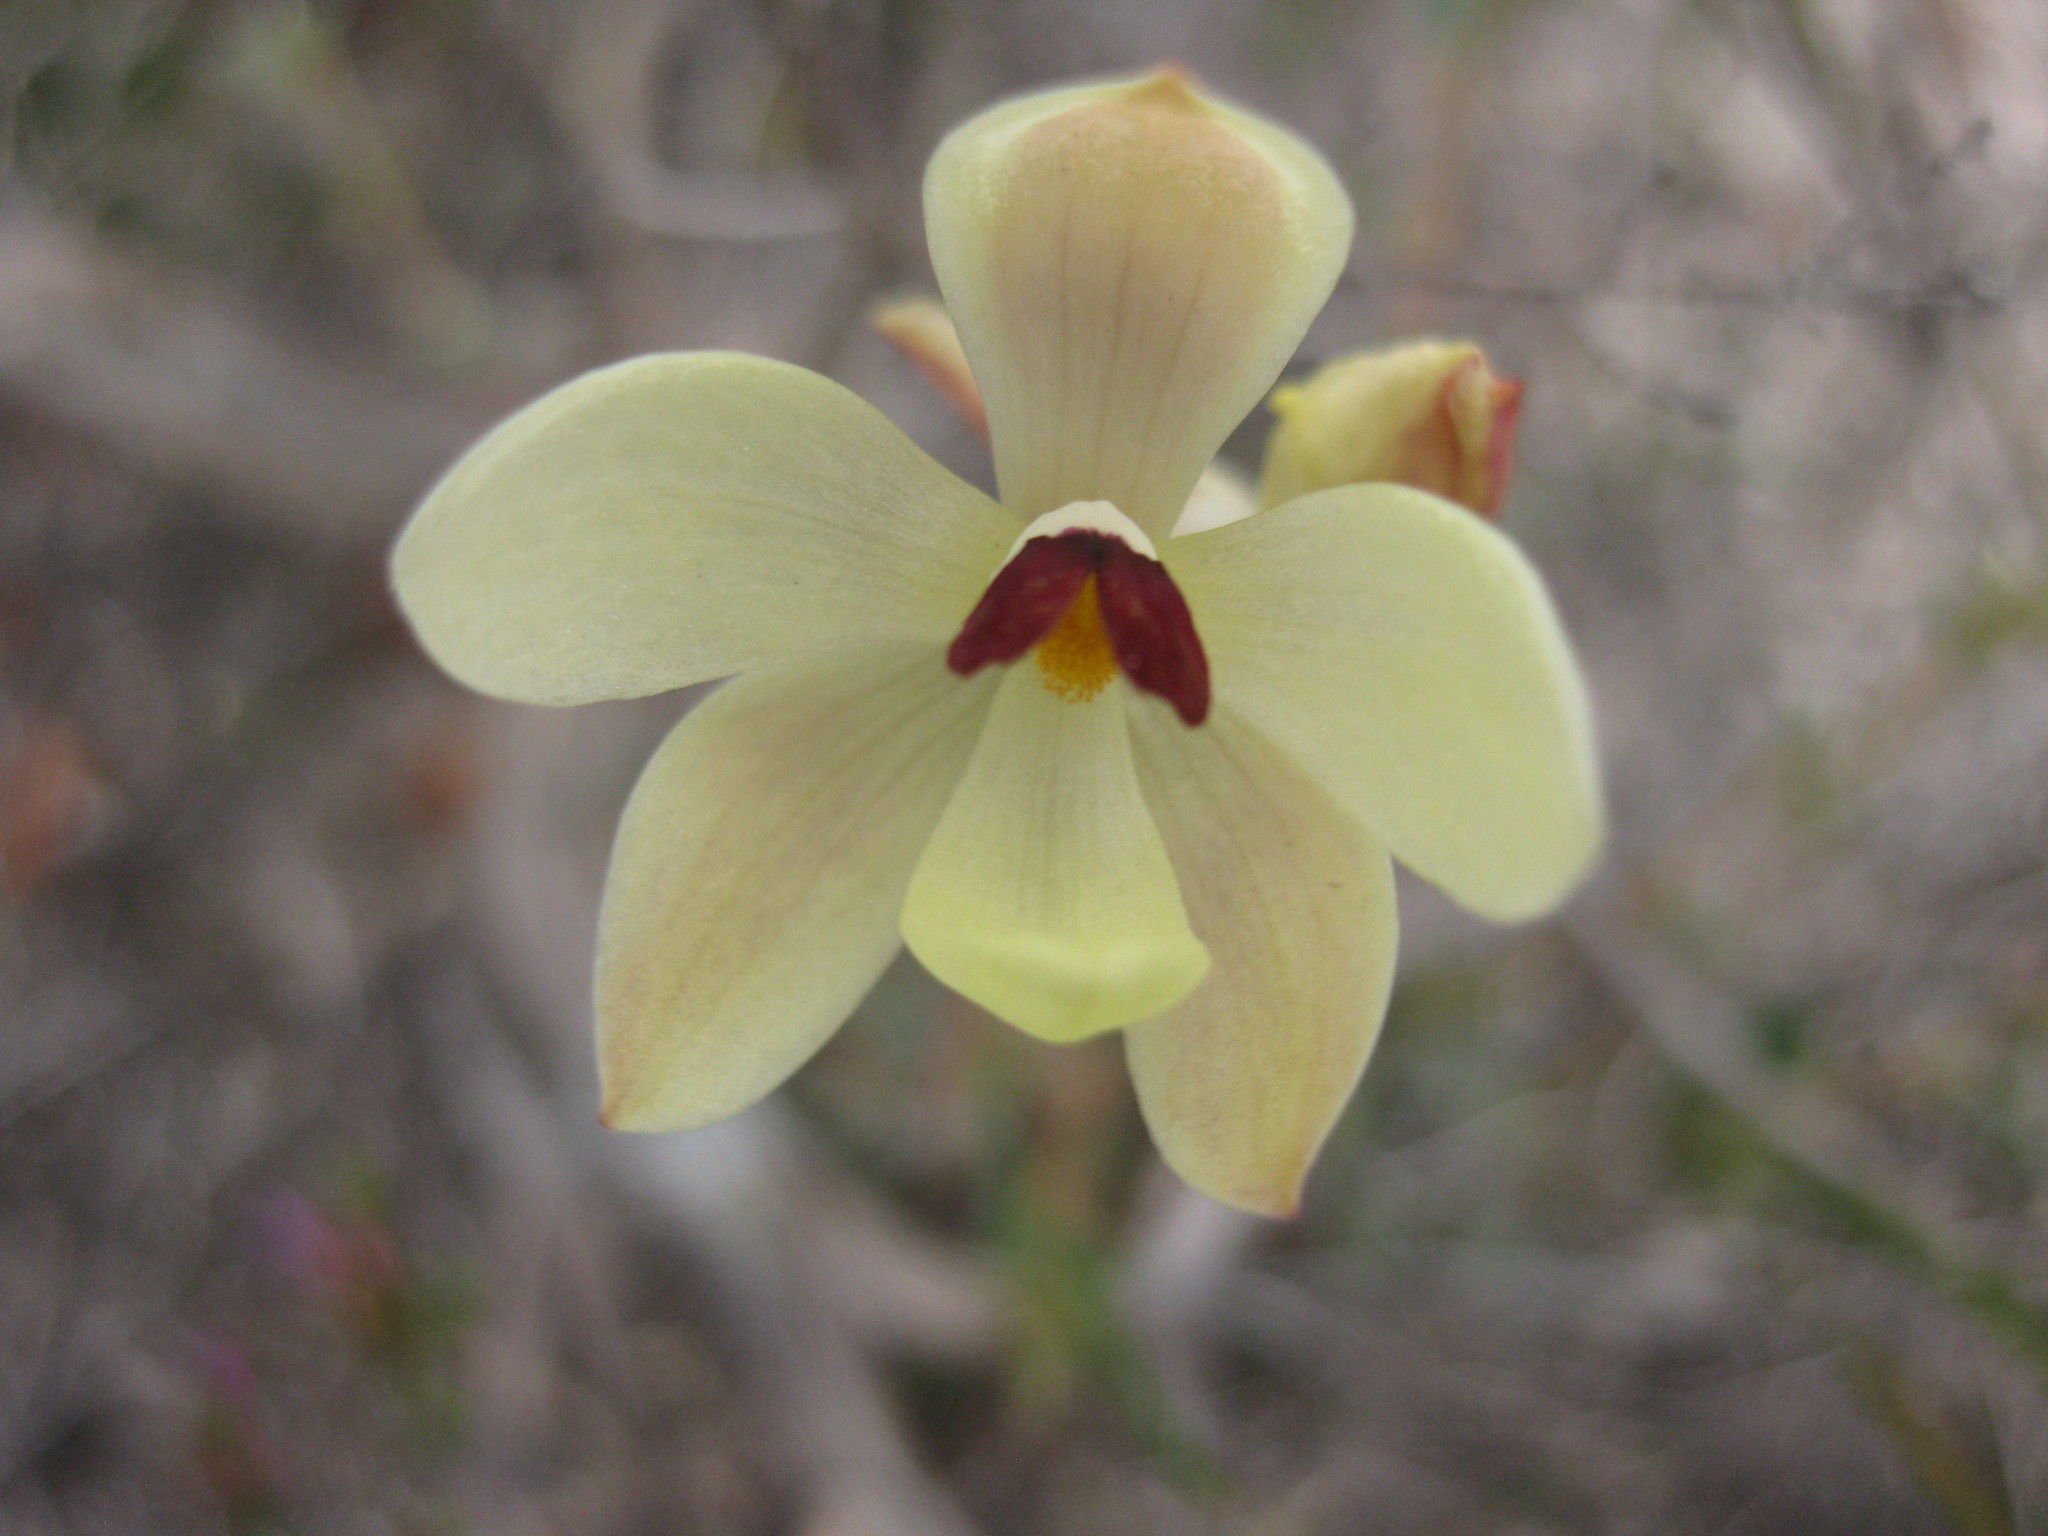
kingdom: Plantae
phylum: Tracheophyta
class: Liliopsida
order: Asparagales
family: Orchidaceae
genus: Thelymitra
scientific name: Thelymitra antennifera
